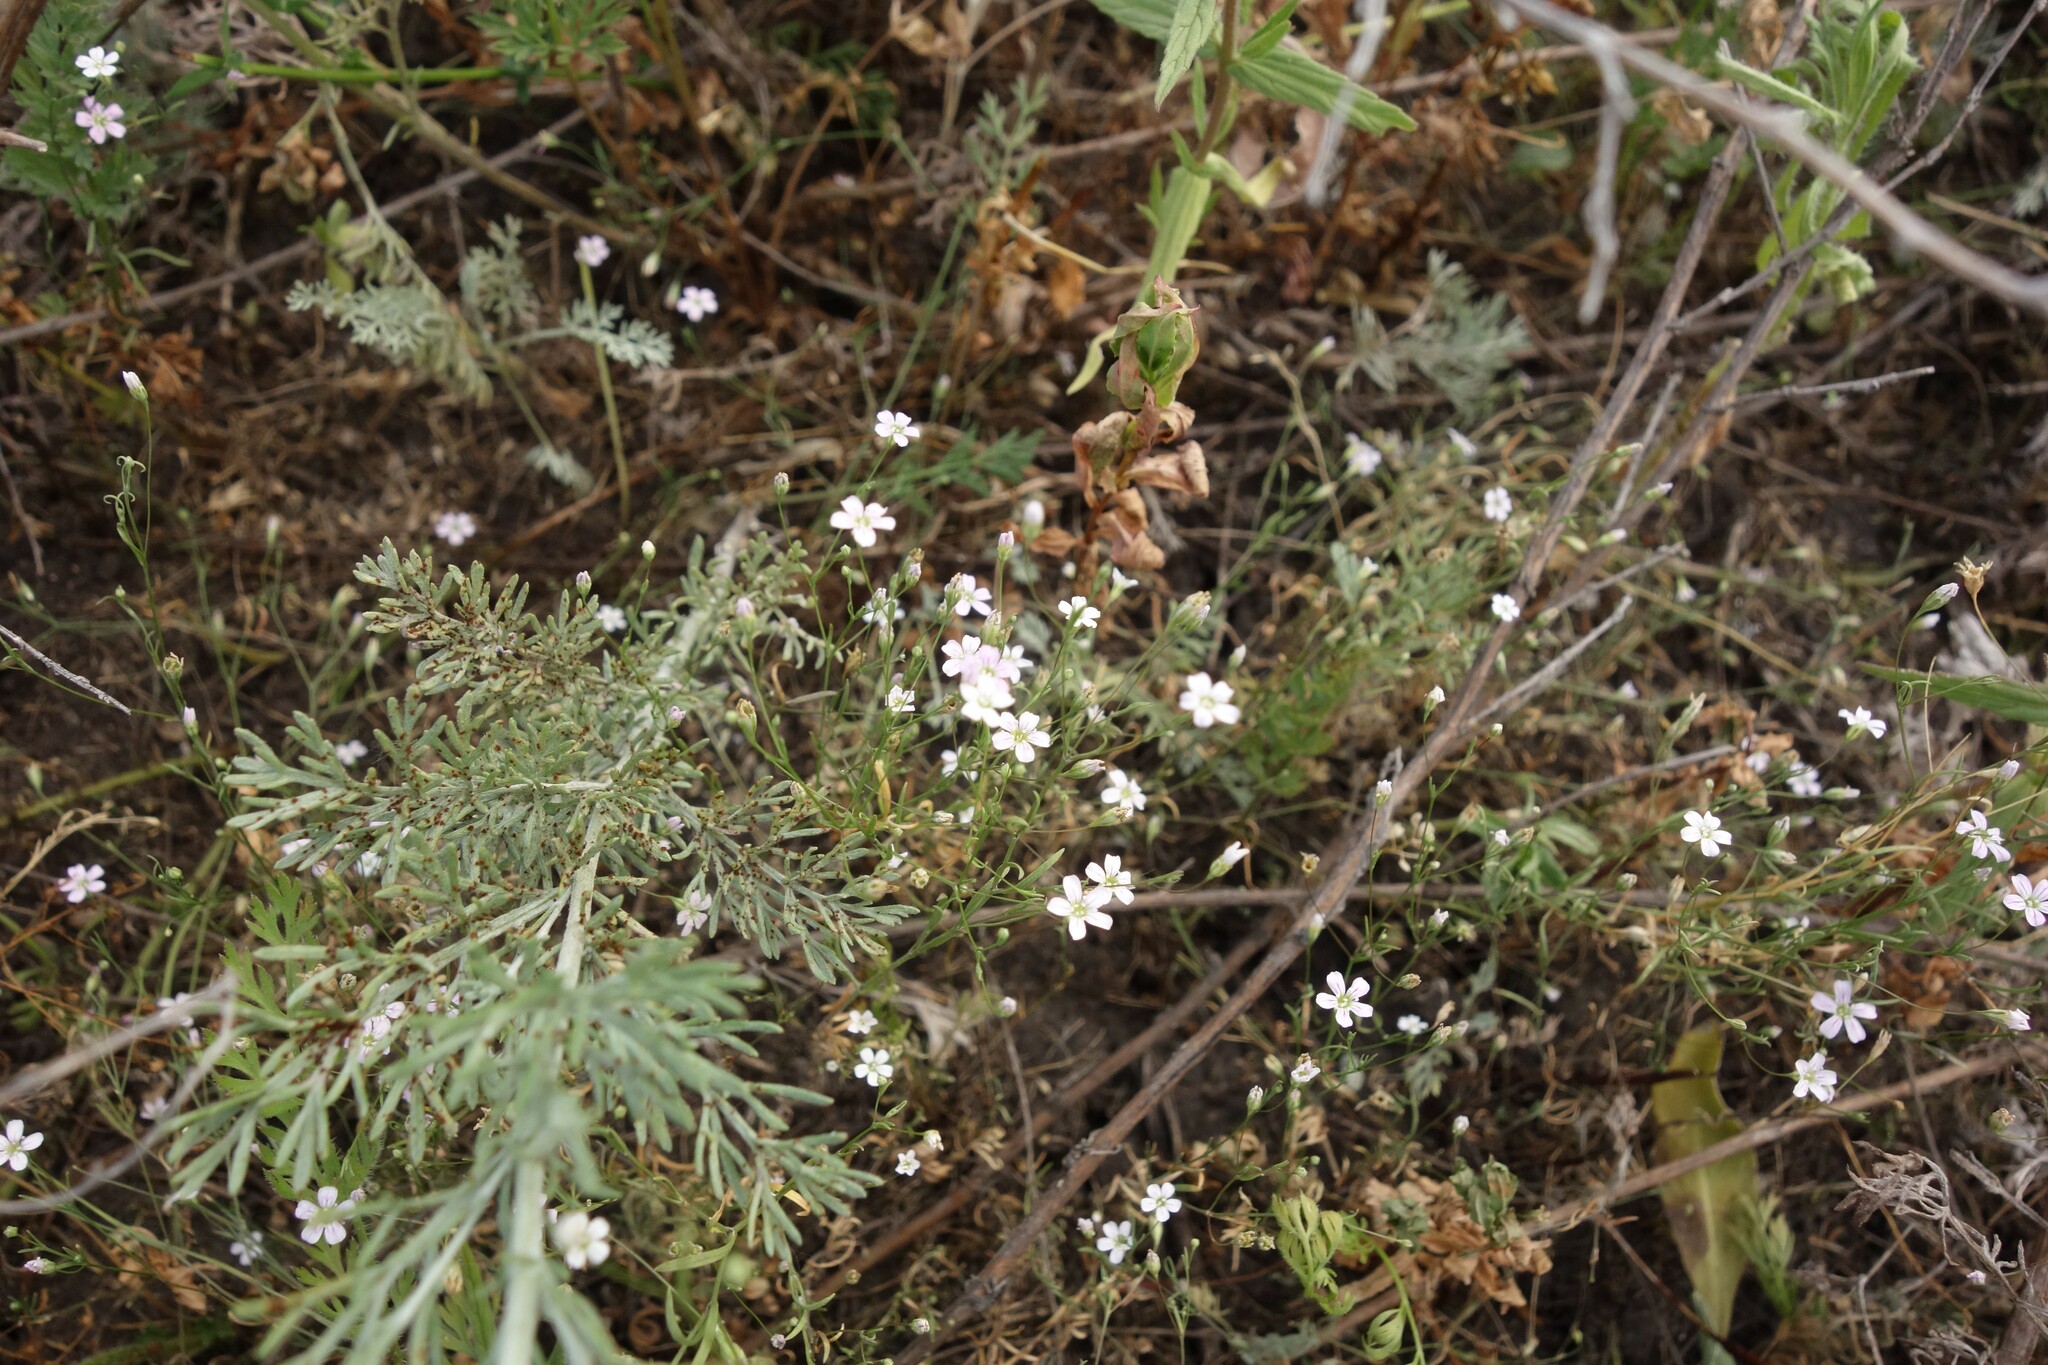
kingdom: Plantae
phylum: Tracheophyta
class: Magnoliopsida
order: Caryophyllales
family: Caryophyllaceae
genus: Psammophiliella
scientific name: Psammophiliella muralis
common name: Cushion baby's-breath
